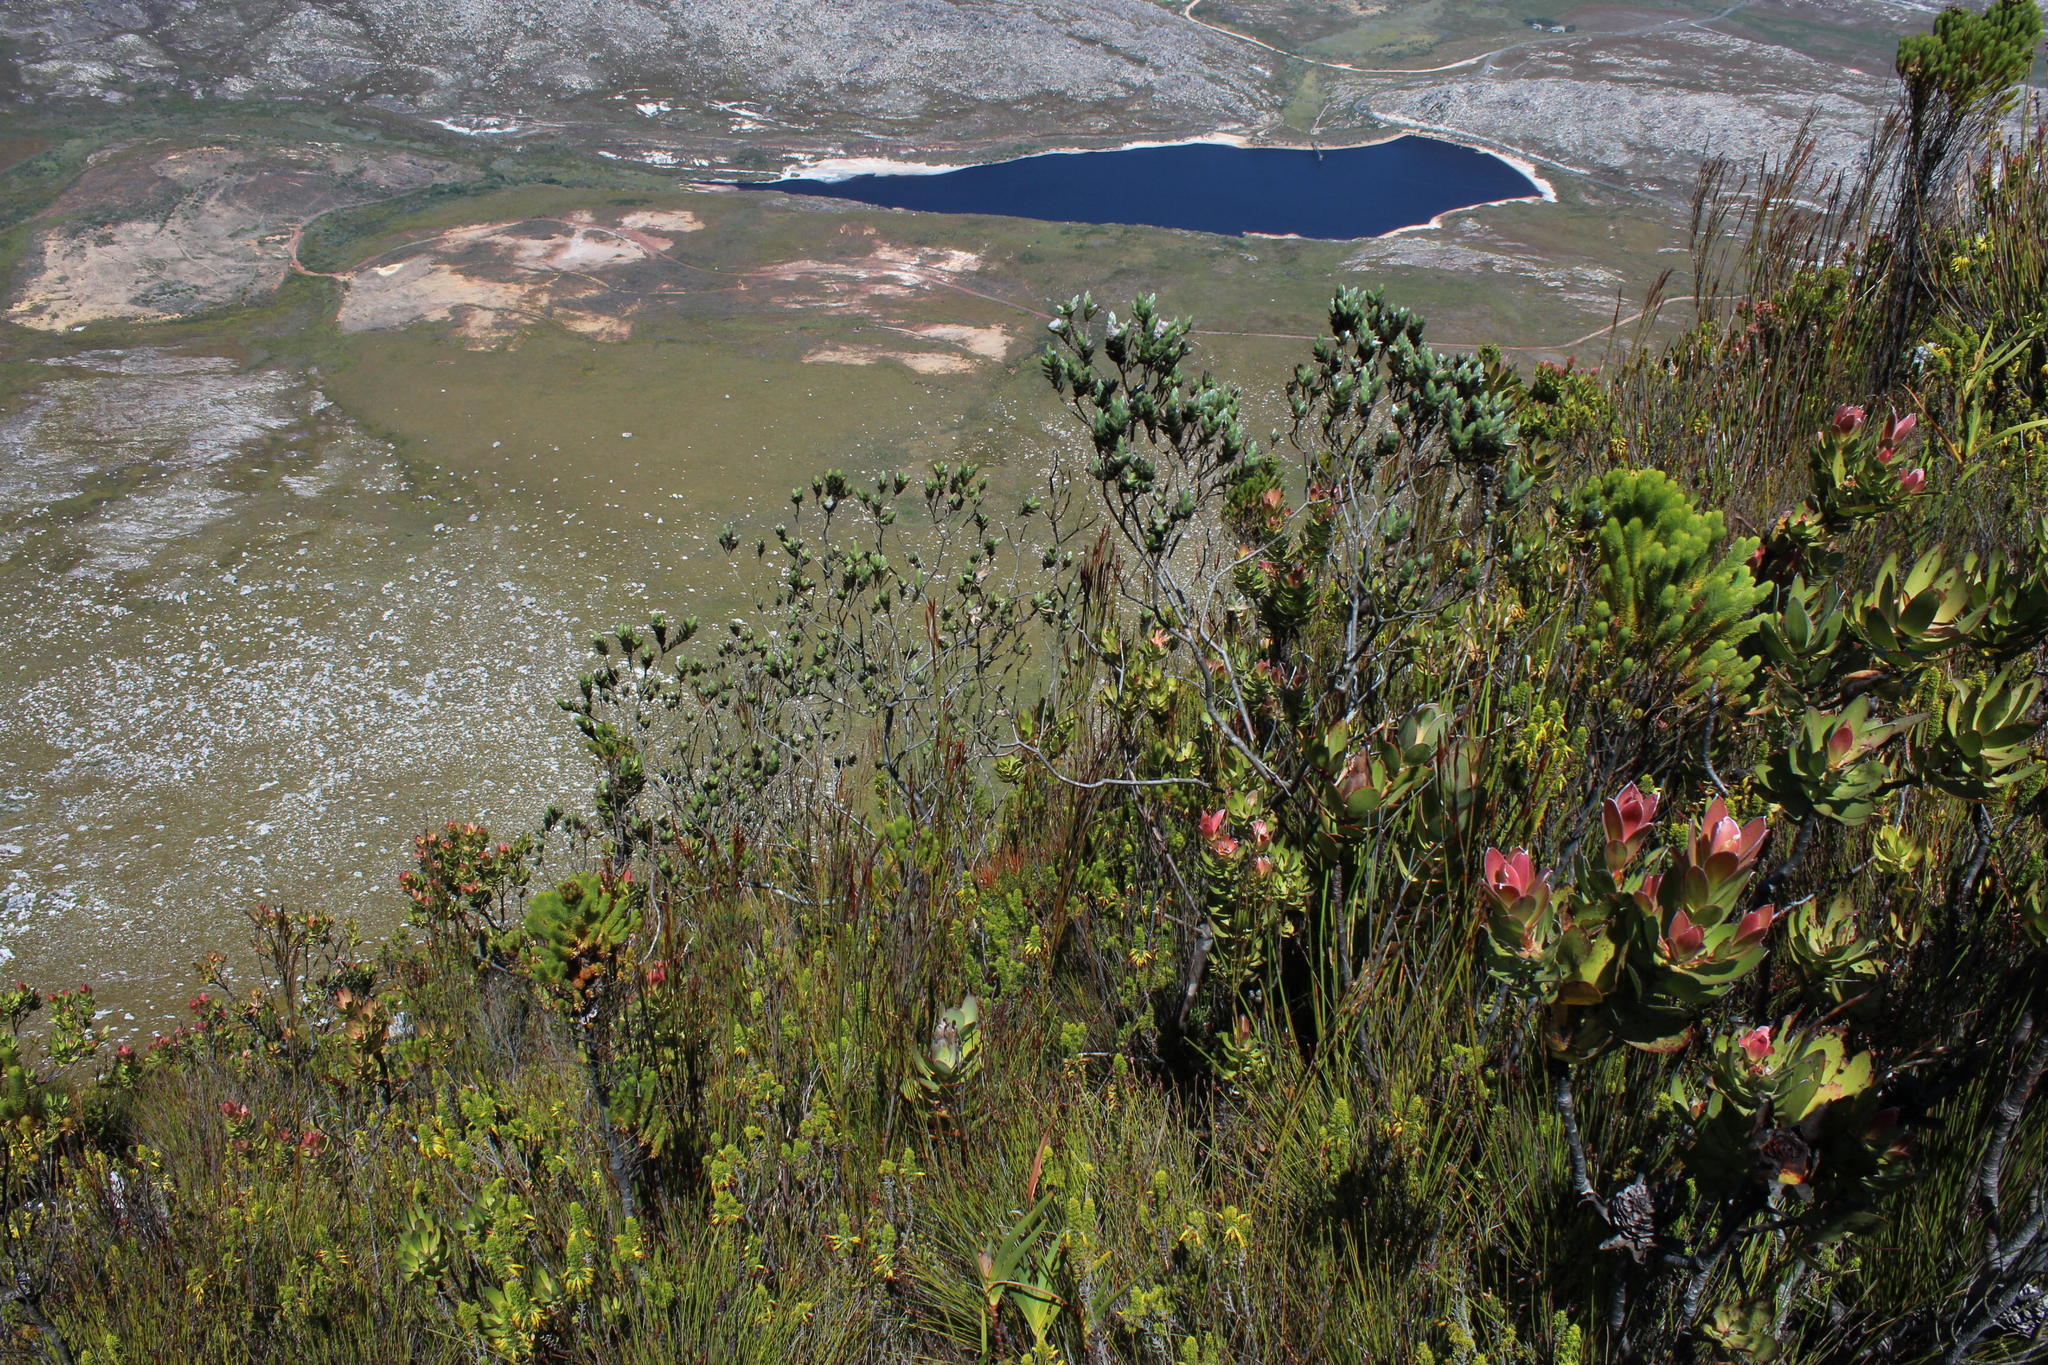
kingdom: Plantae
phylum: Tracheophyta
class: Magnoliopsida
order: Fabales
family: Fabaceae
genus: Liparia
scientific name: Liparia vestita
